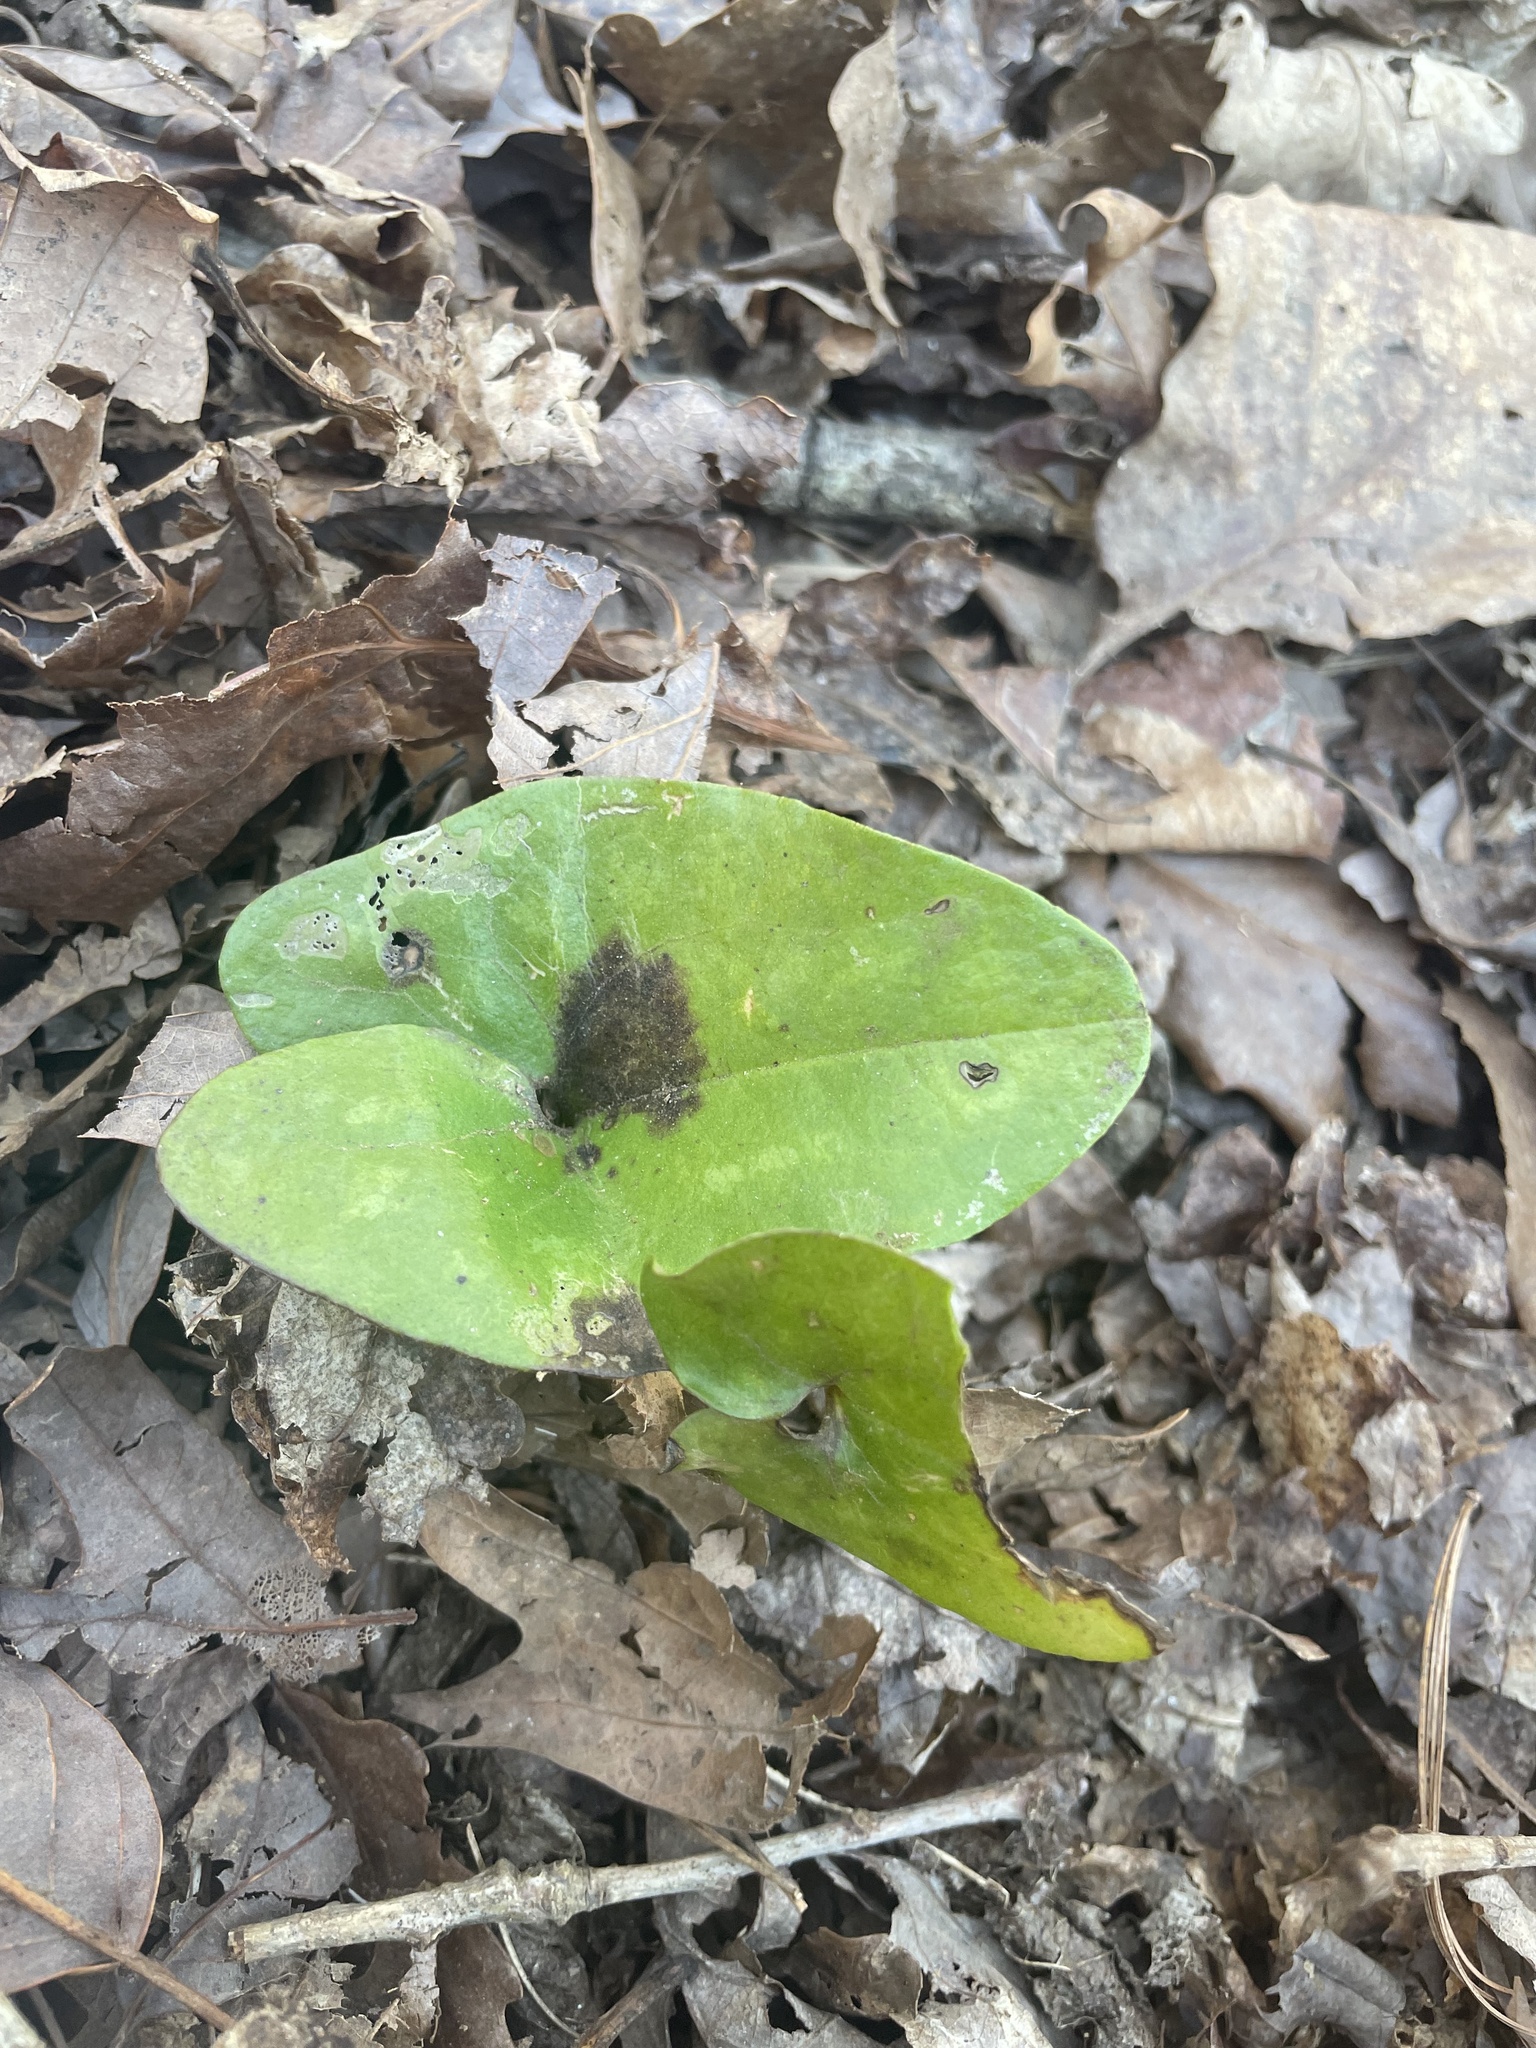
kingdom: Plantae
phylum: Tracheophyta
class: Magnoliopsida
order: Piperales
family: Aristolochiaceae
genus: Hexastylis
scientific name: Hexastylis arifolia
